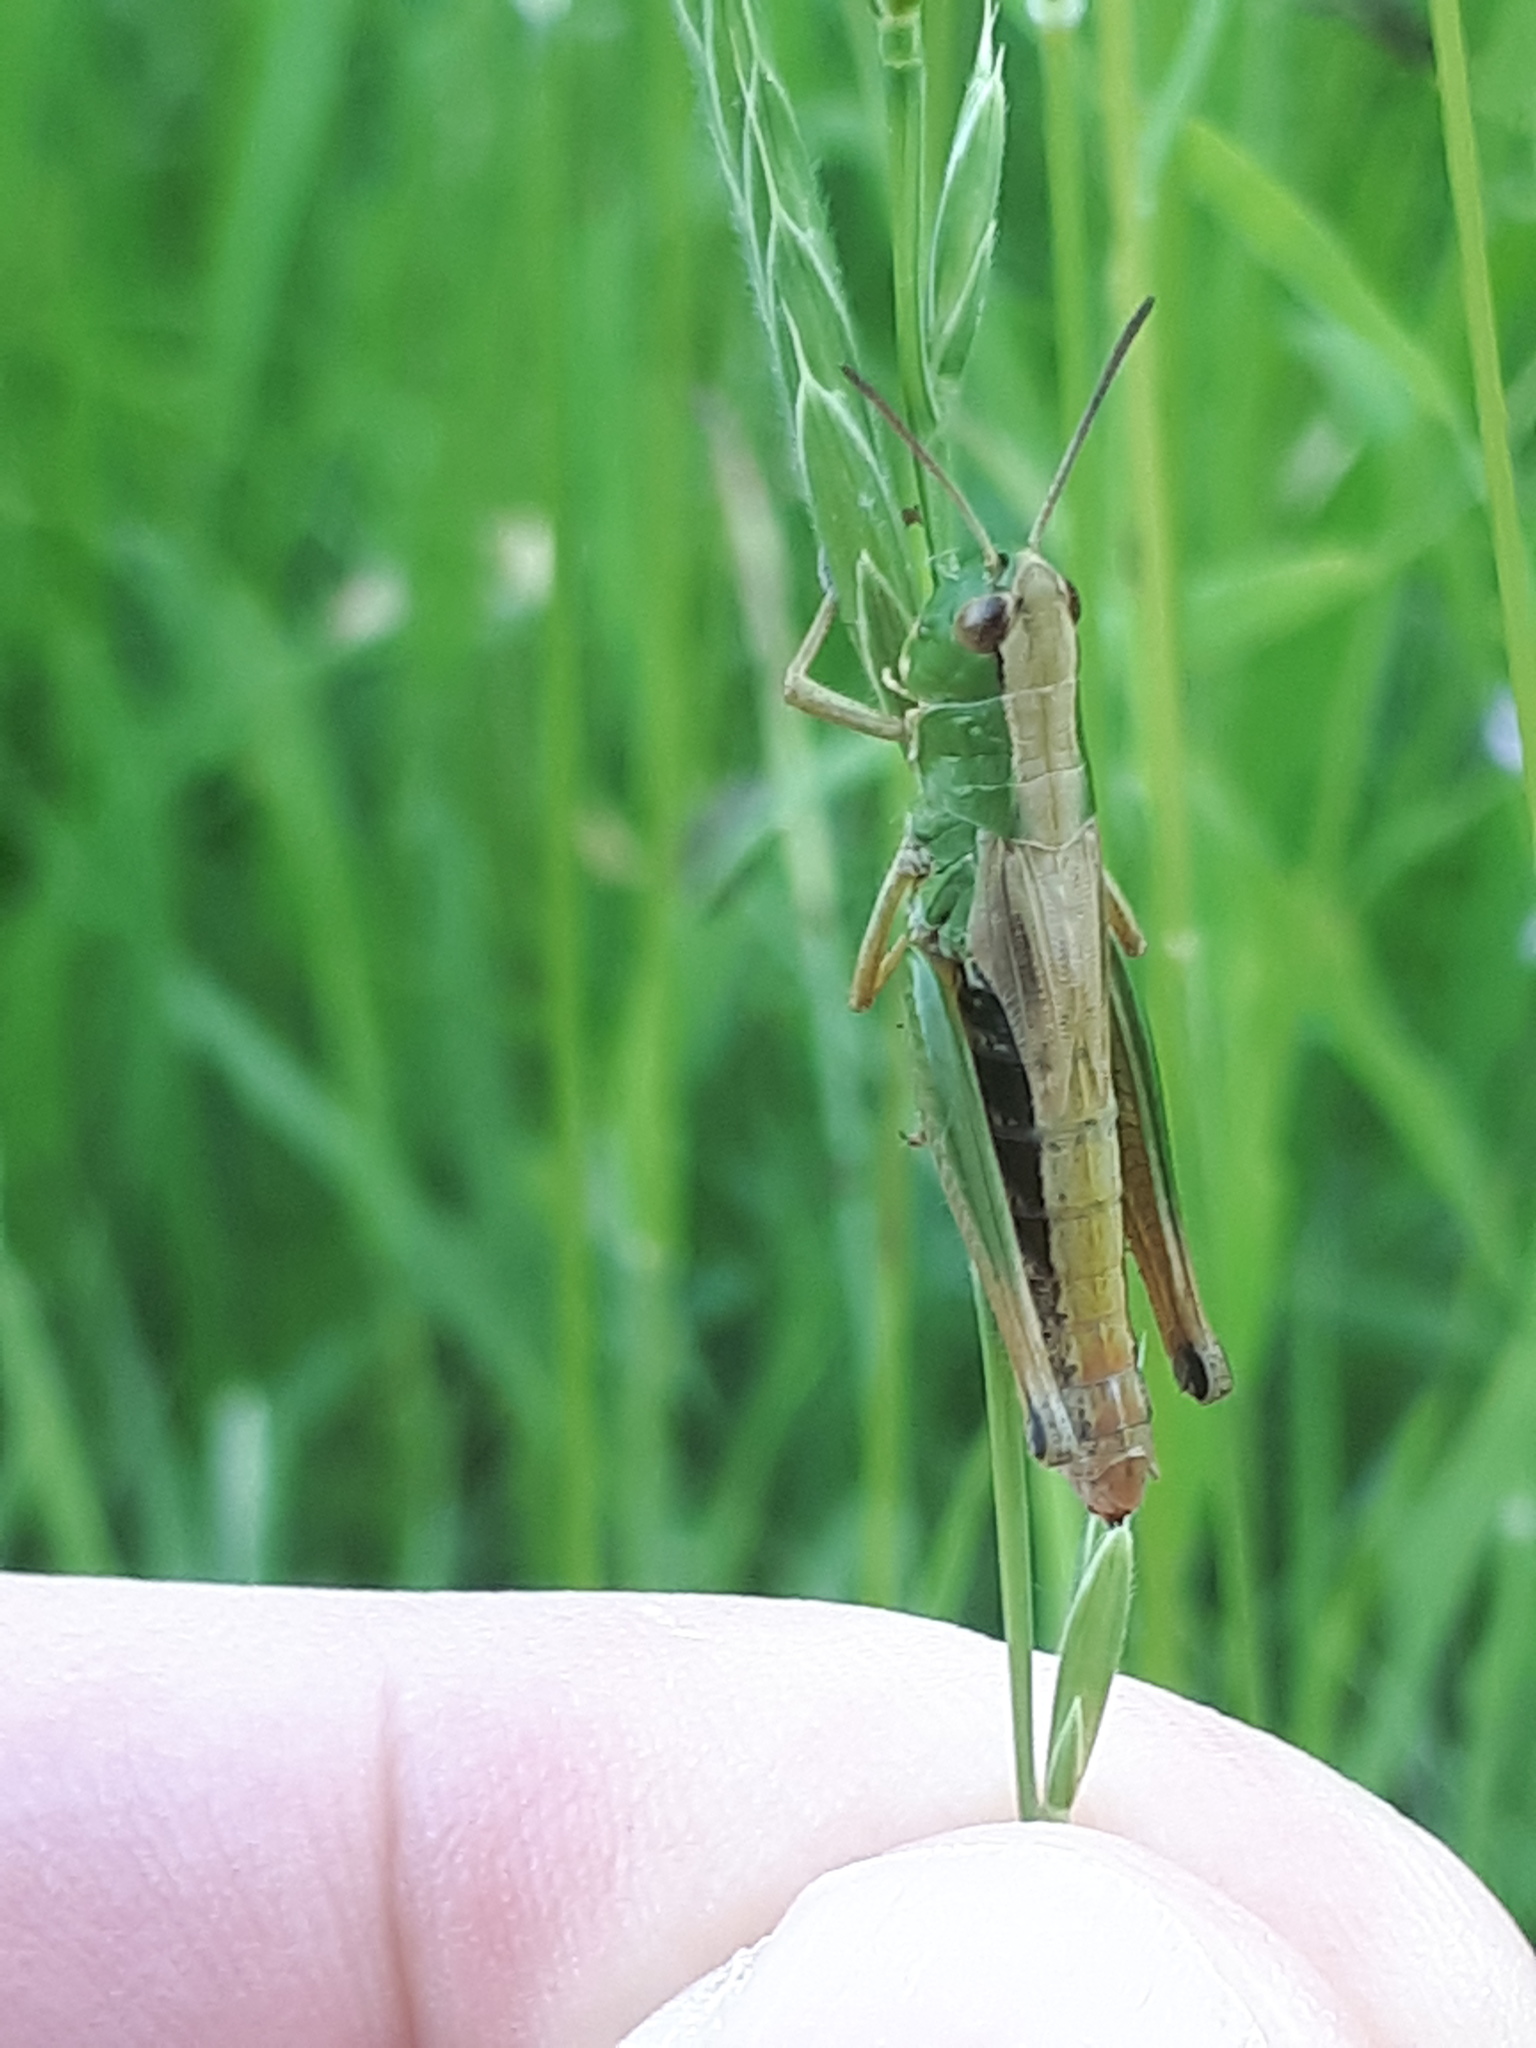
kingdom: Animalia
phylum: Arthropoda
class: Insecta
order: Orthoptera
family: Acrididae
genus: Pseudochorthippus
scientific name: Pseudochorthippus parallelus
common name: Meadow grasshopper
